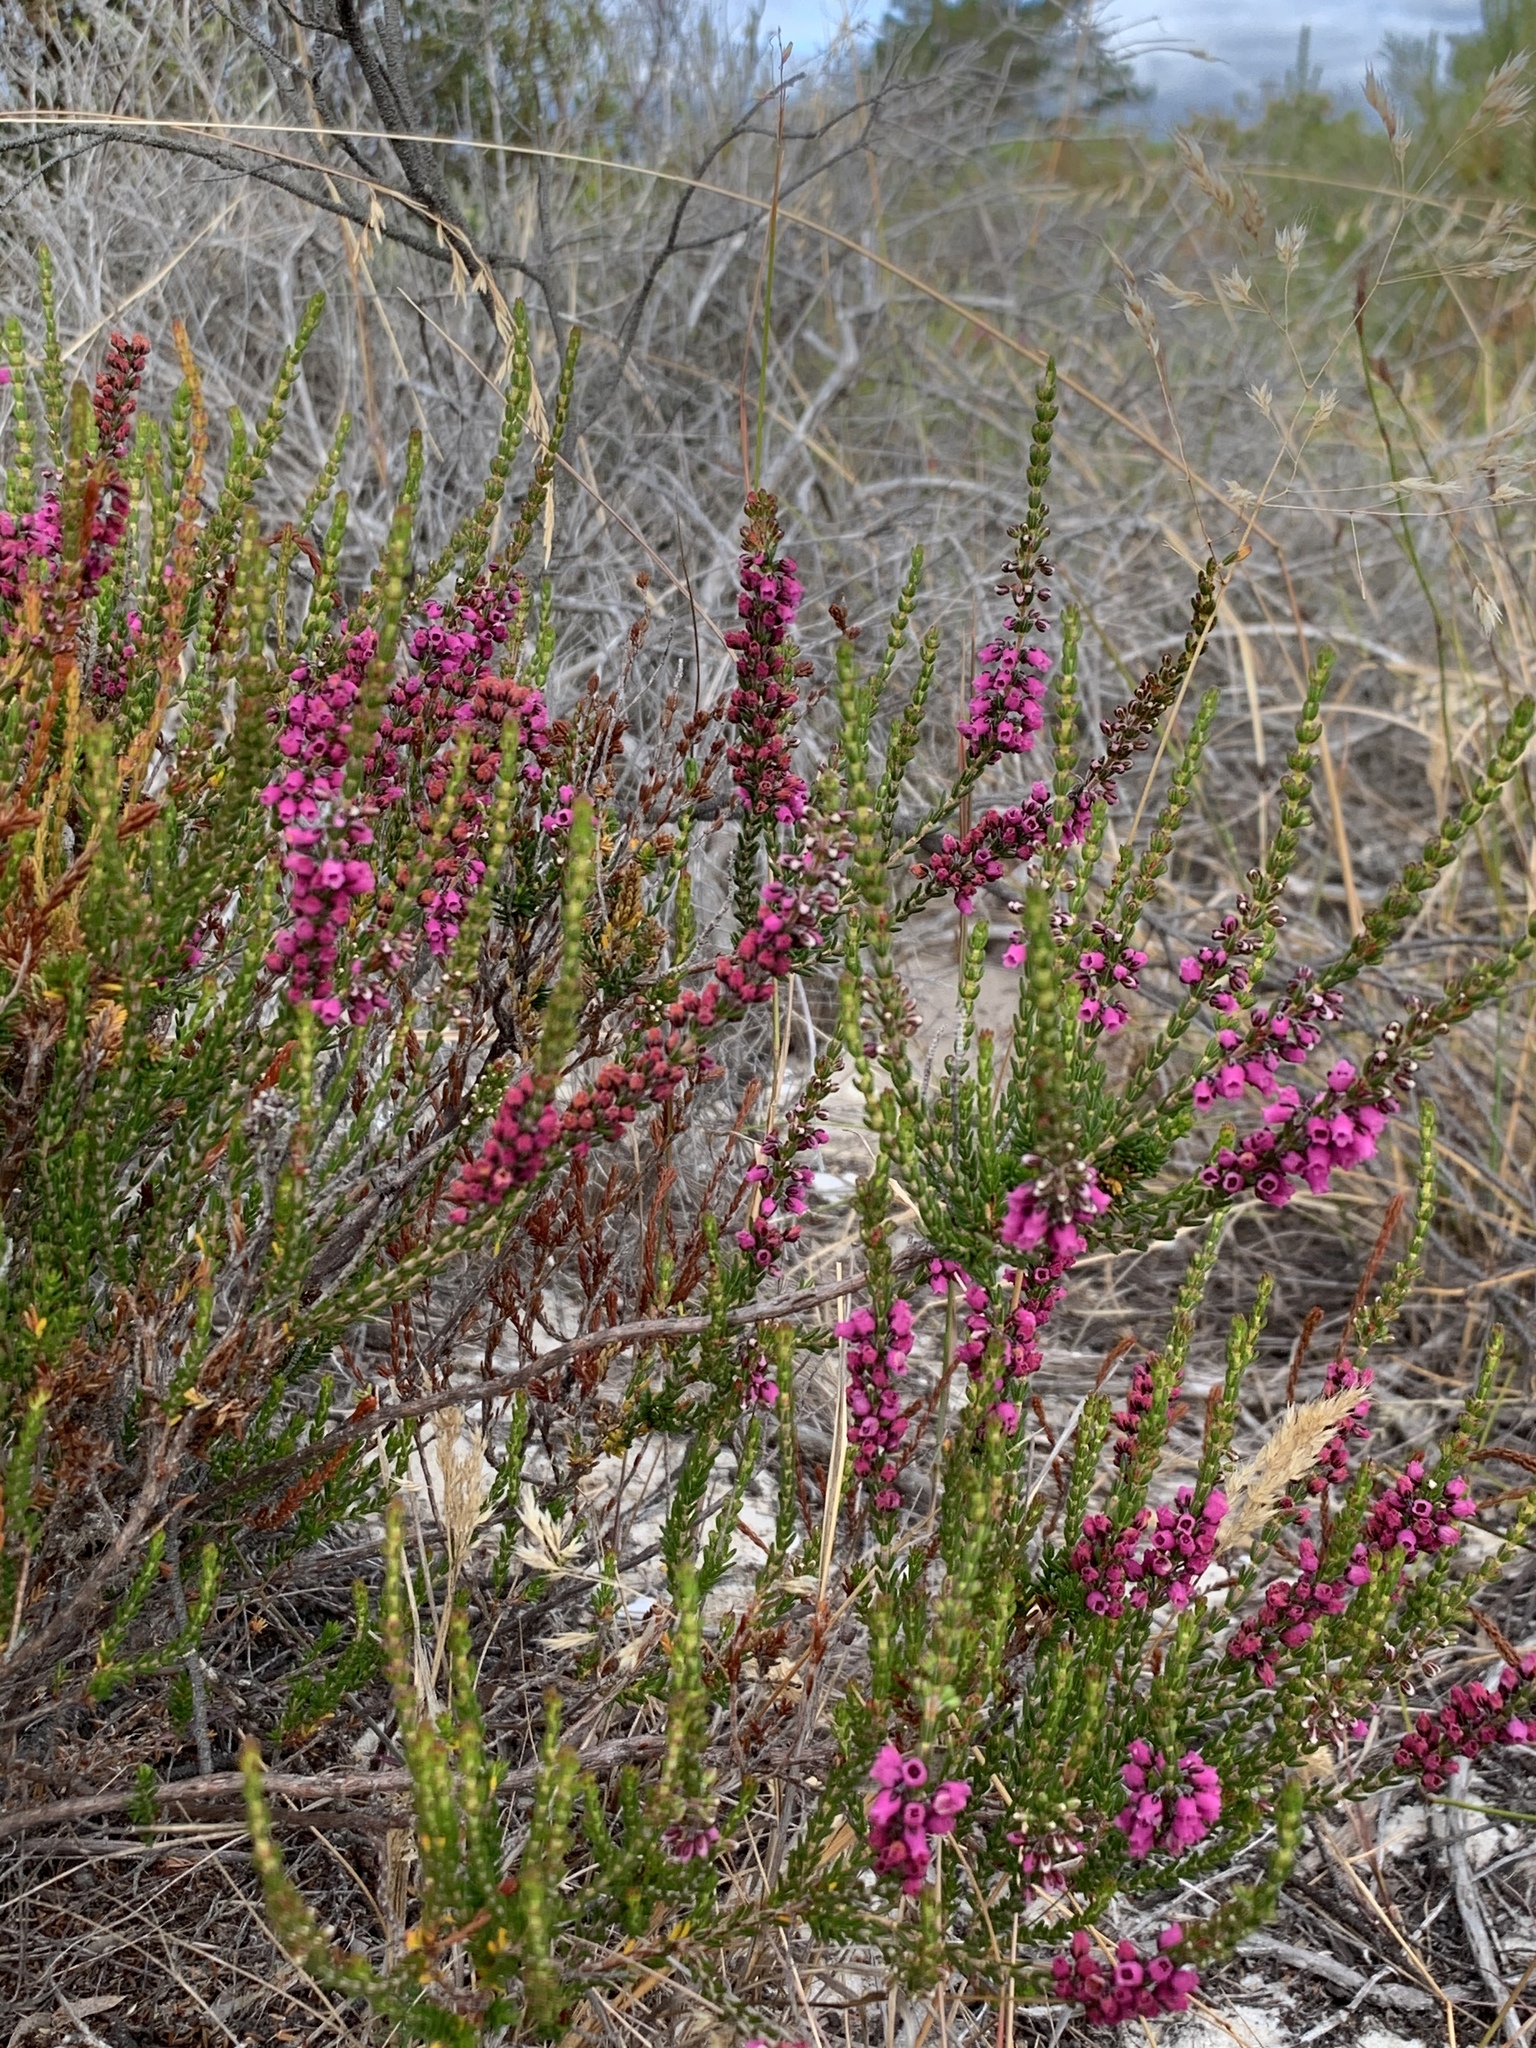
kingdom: Plantae
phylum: Tracheophyta
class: Magnoliopsida
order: Ericales
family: Ericaceae
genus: Erica
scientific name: Erica pulchella
